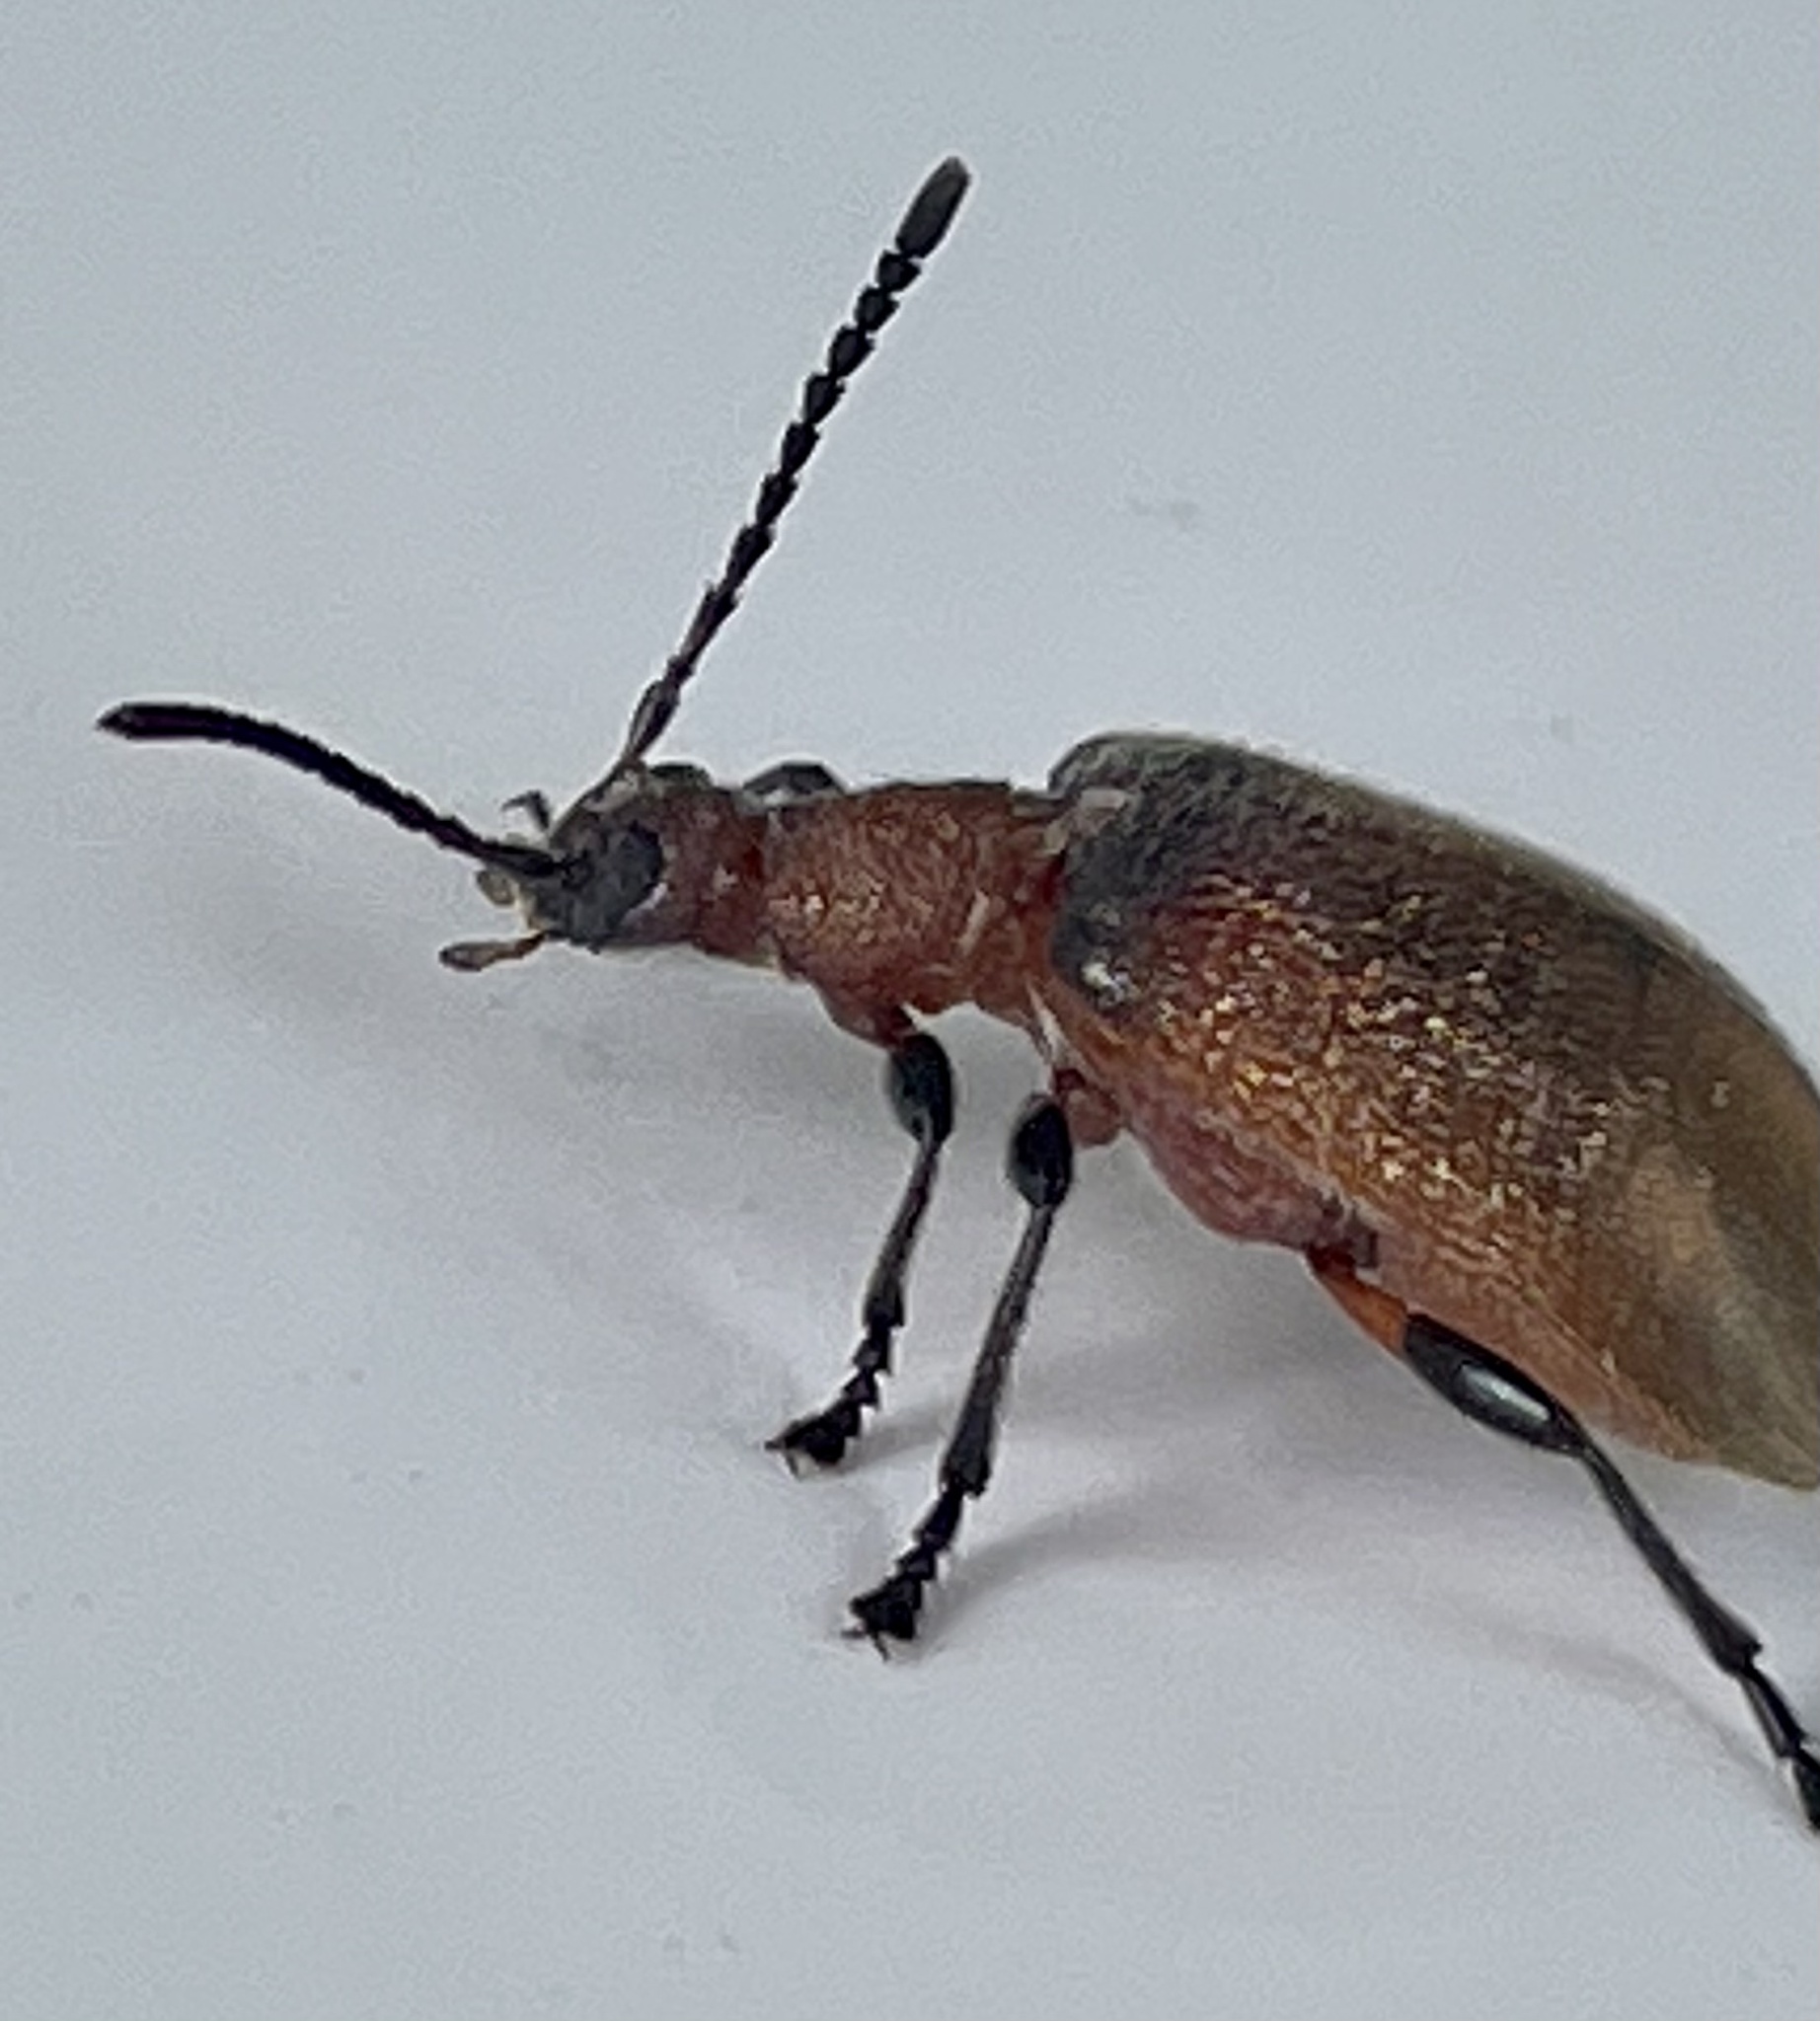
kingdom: Animalia
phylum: Arthropoda
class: Insecta
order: Coleoptera
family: Tenebrionidae
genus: Ecnolagria
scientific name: Ecnolagria
